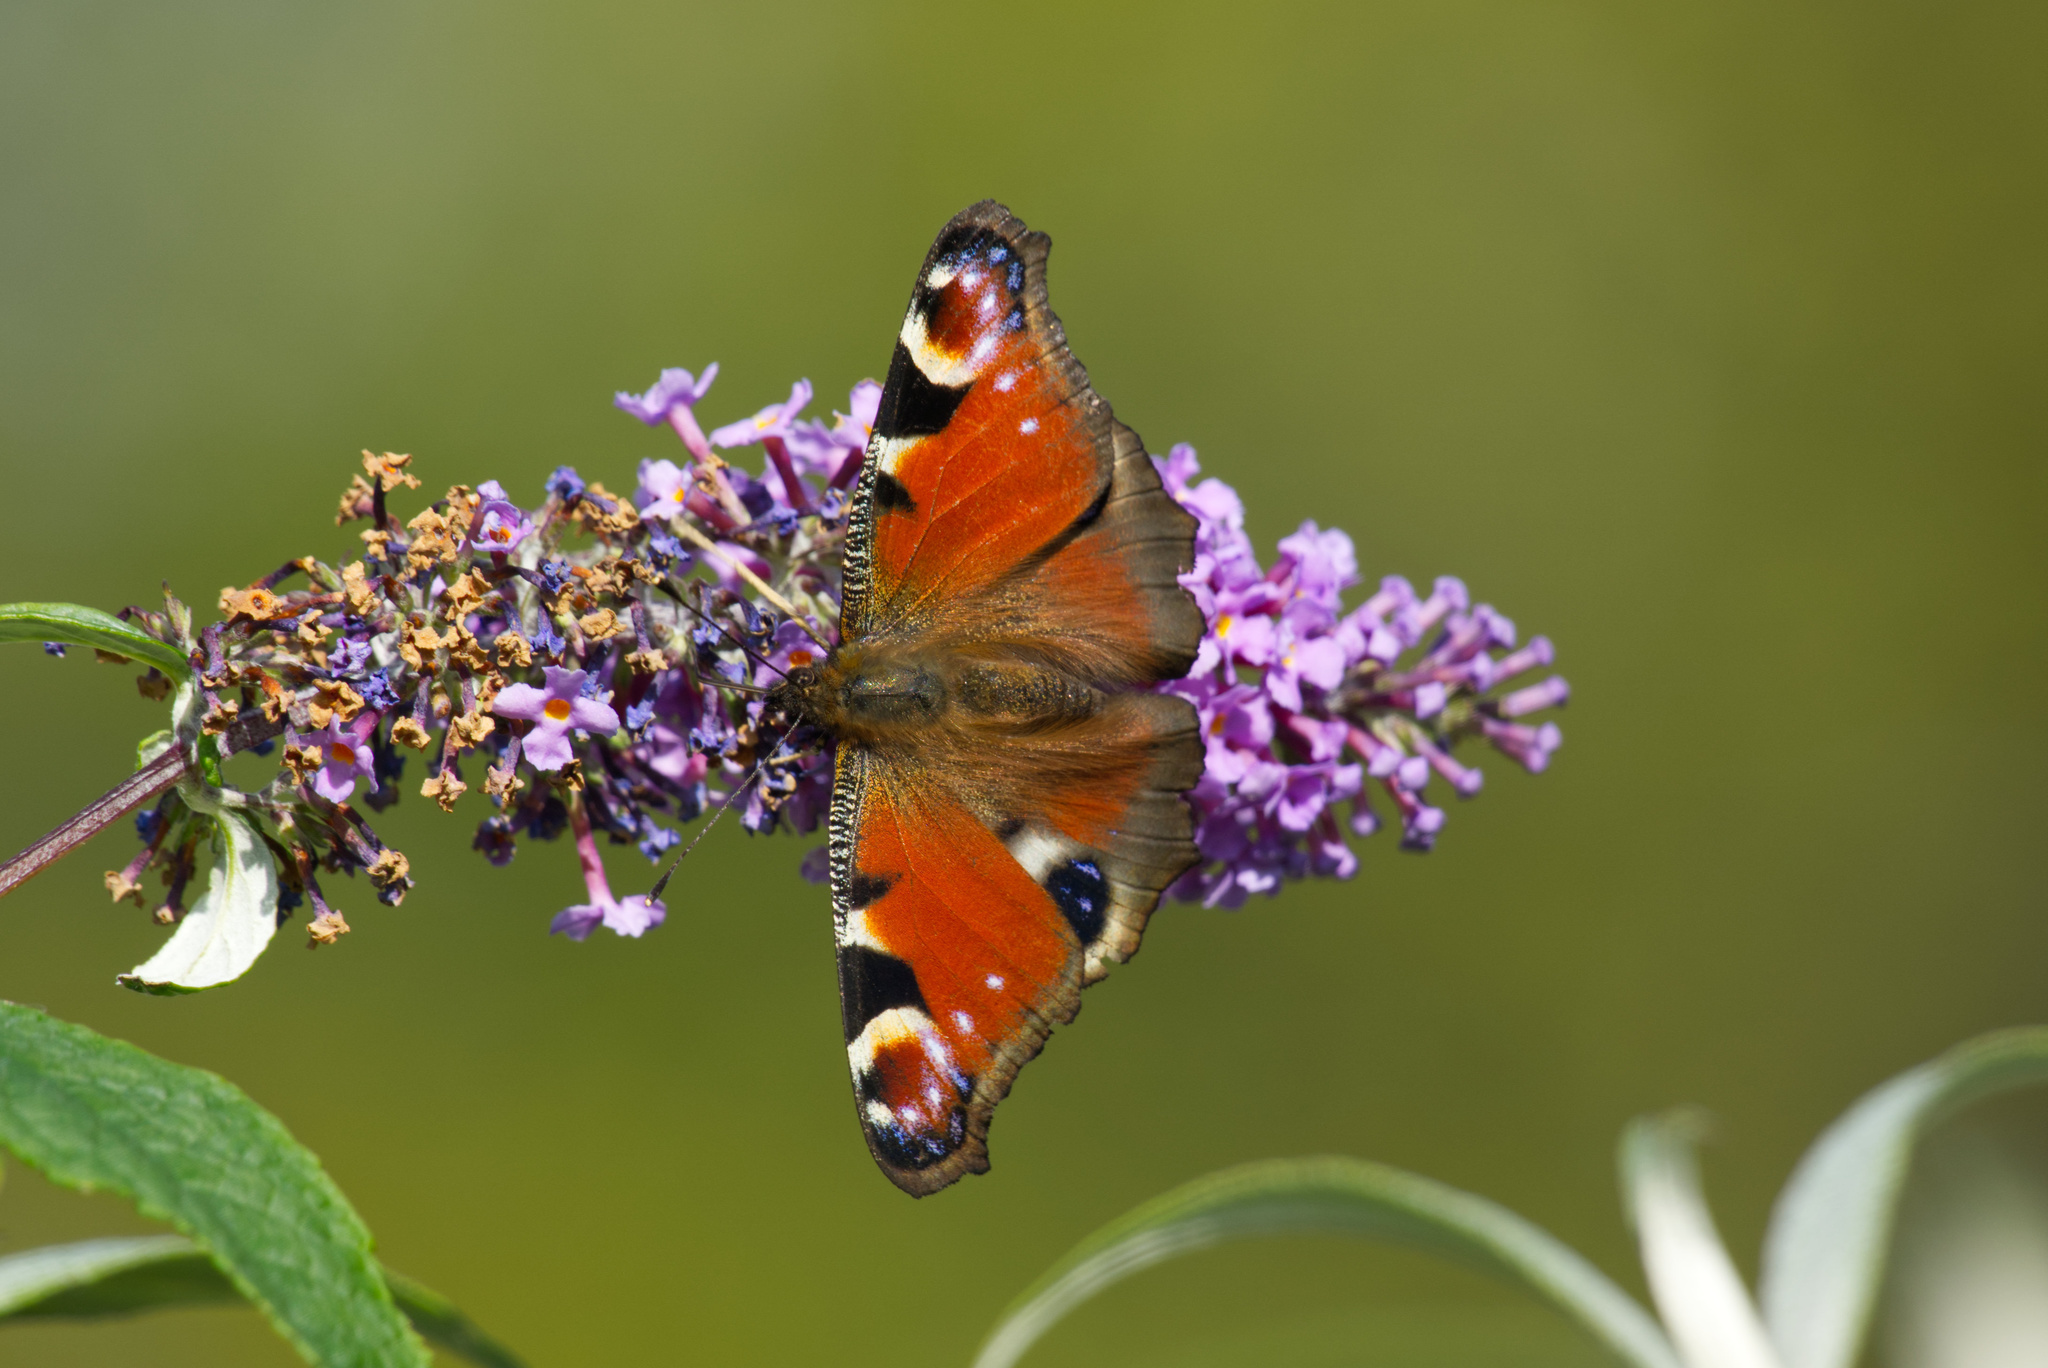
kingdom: Animalia
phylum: Arthropoda
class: Insecta
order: Lepidoptera
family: Nymphalidae
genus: Aglais
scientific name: Aglais io
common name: Peacock
